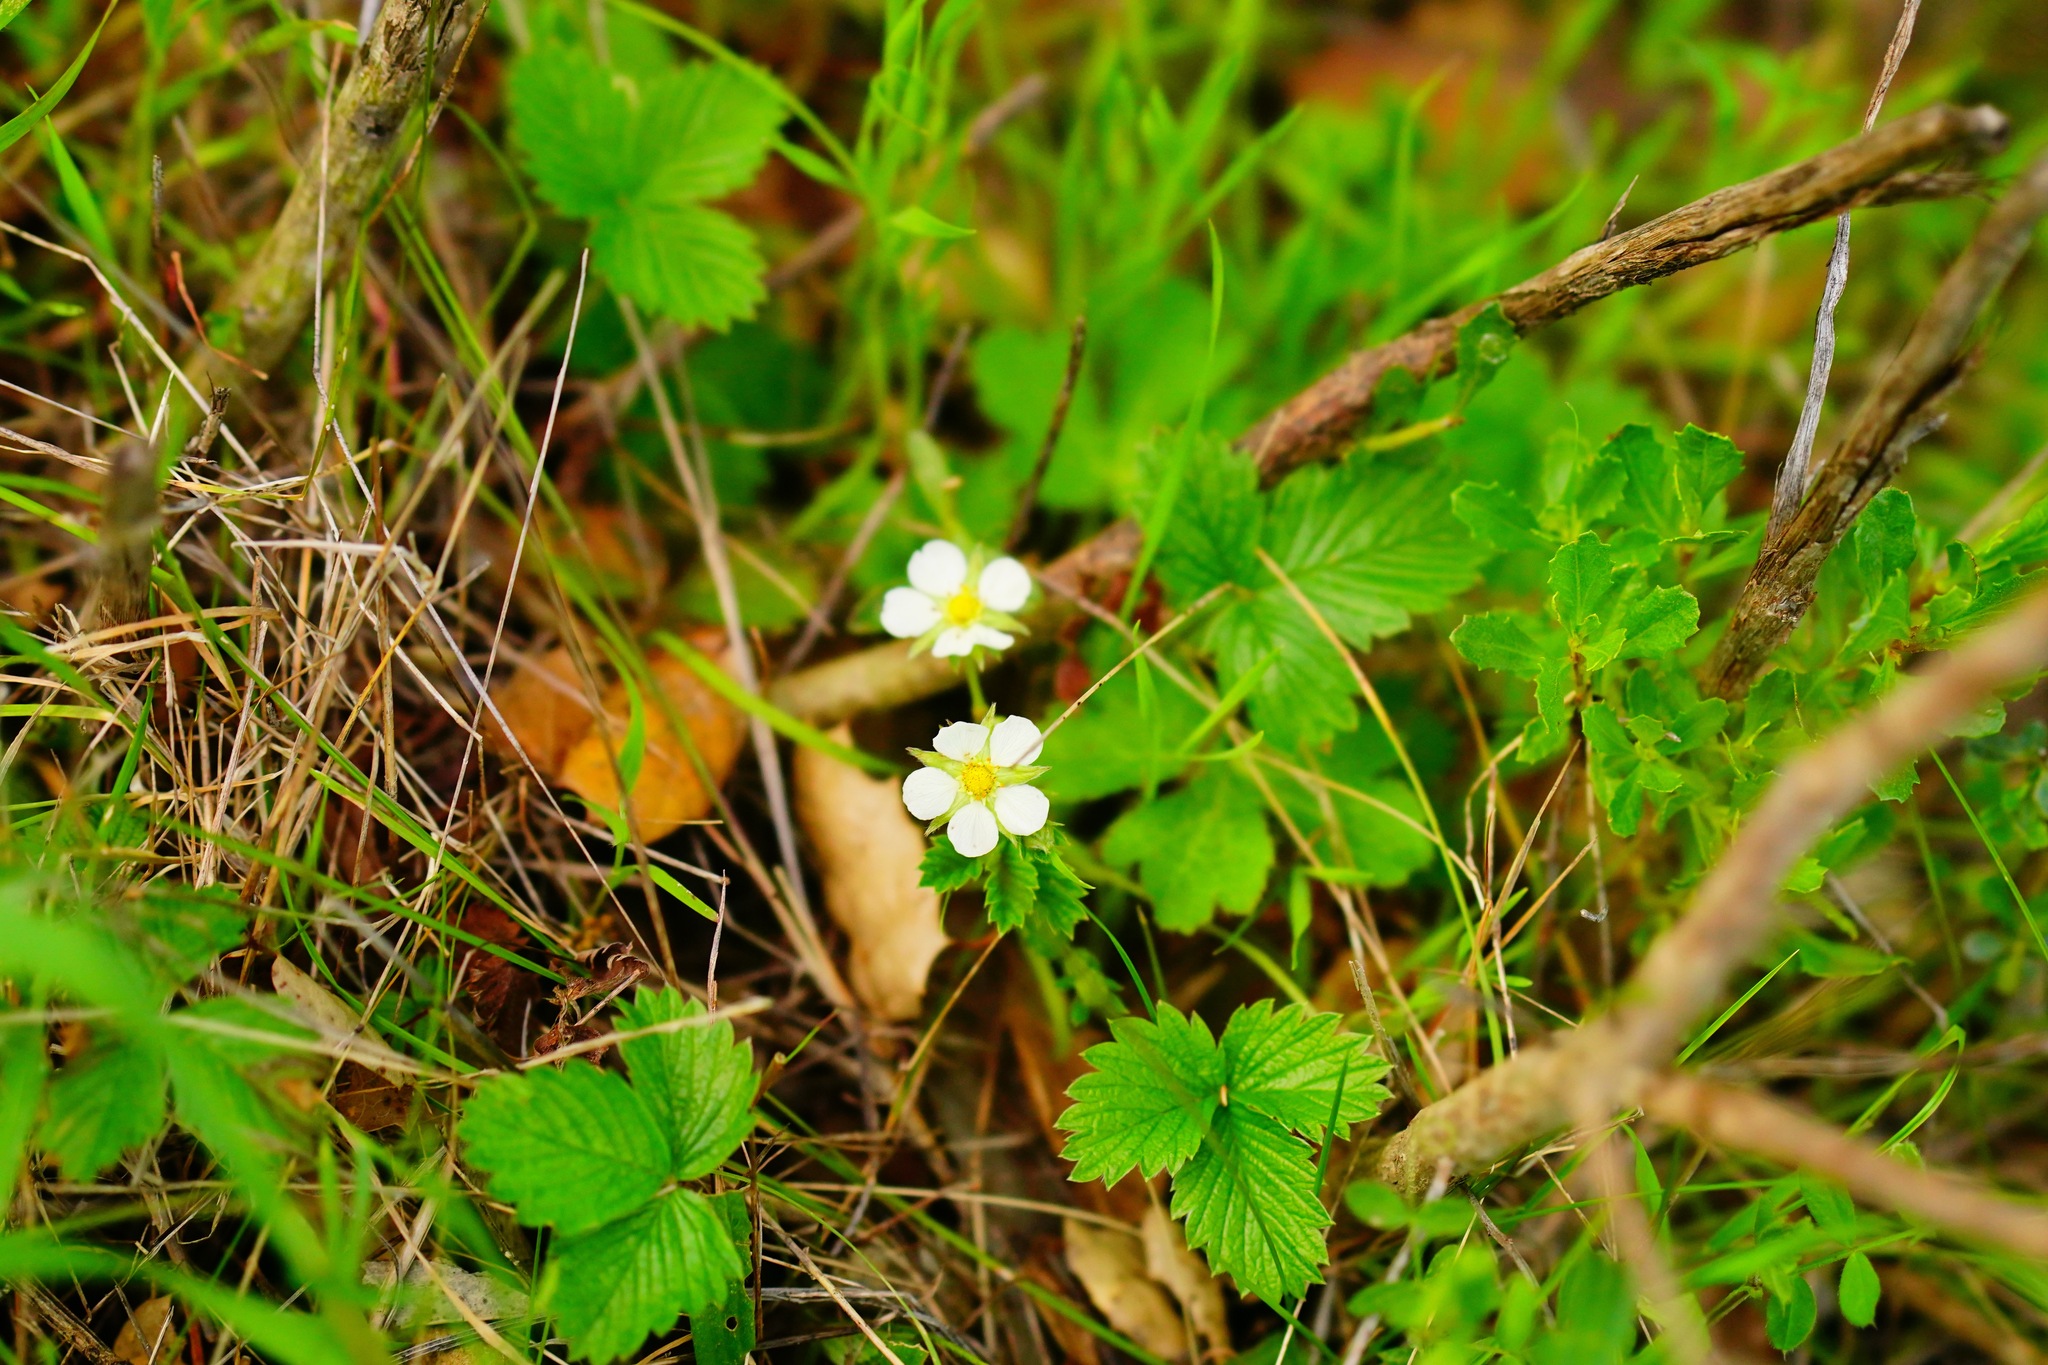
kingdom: Plantae
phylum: Tracheophyta
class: Magnoliopsida
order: Rosales
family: Rosaceae
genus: Fragaria
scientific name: Fragaria vesca
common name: Wild strawberry
